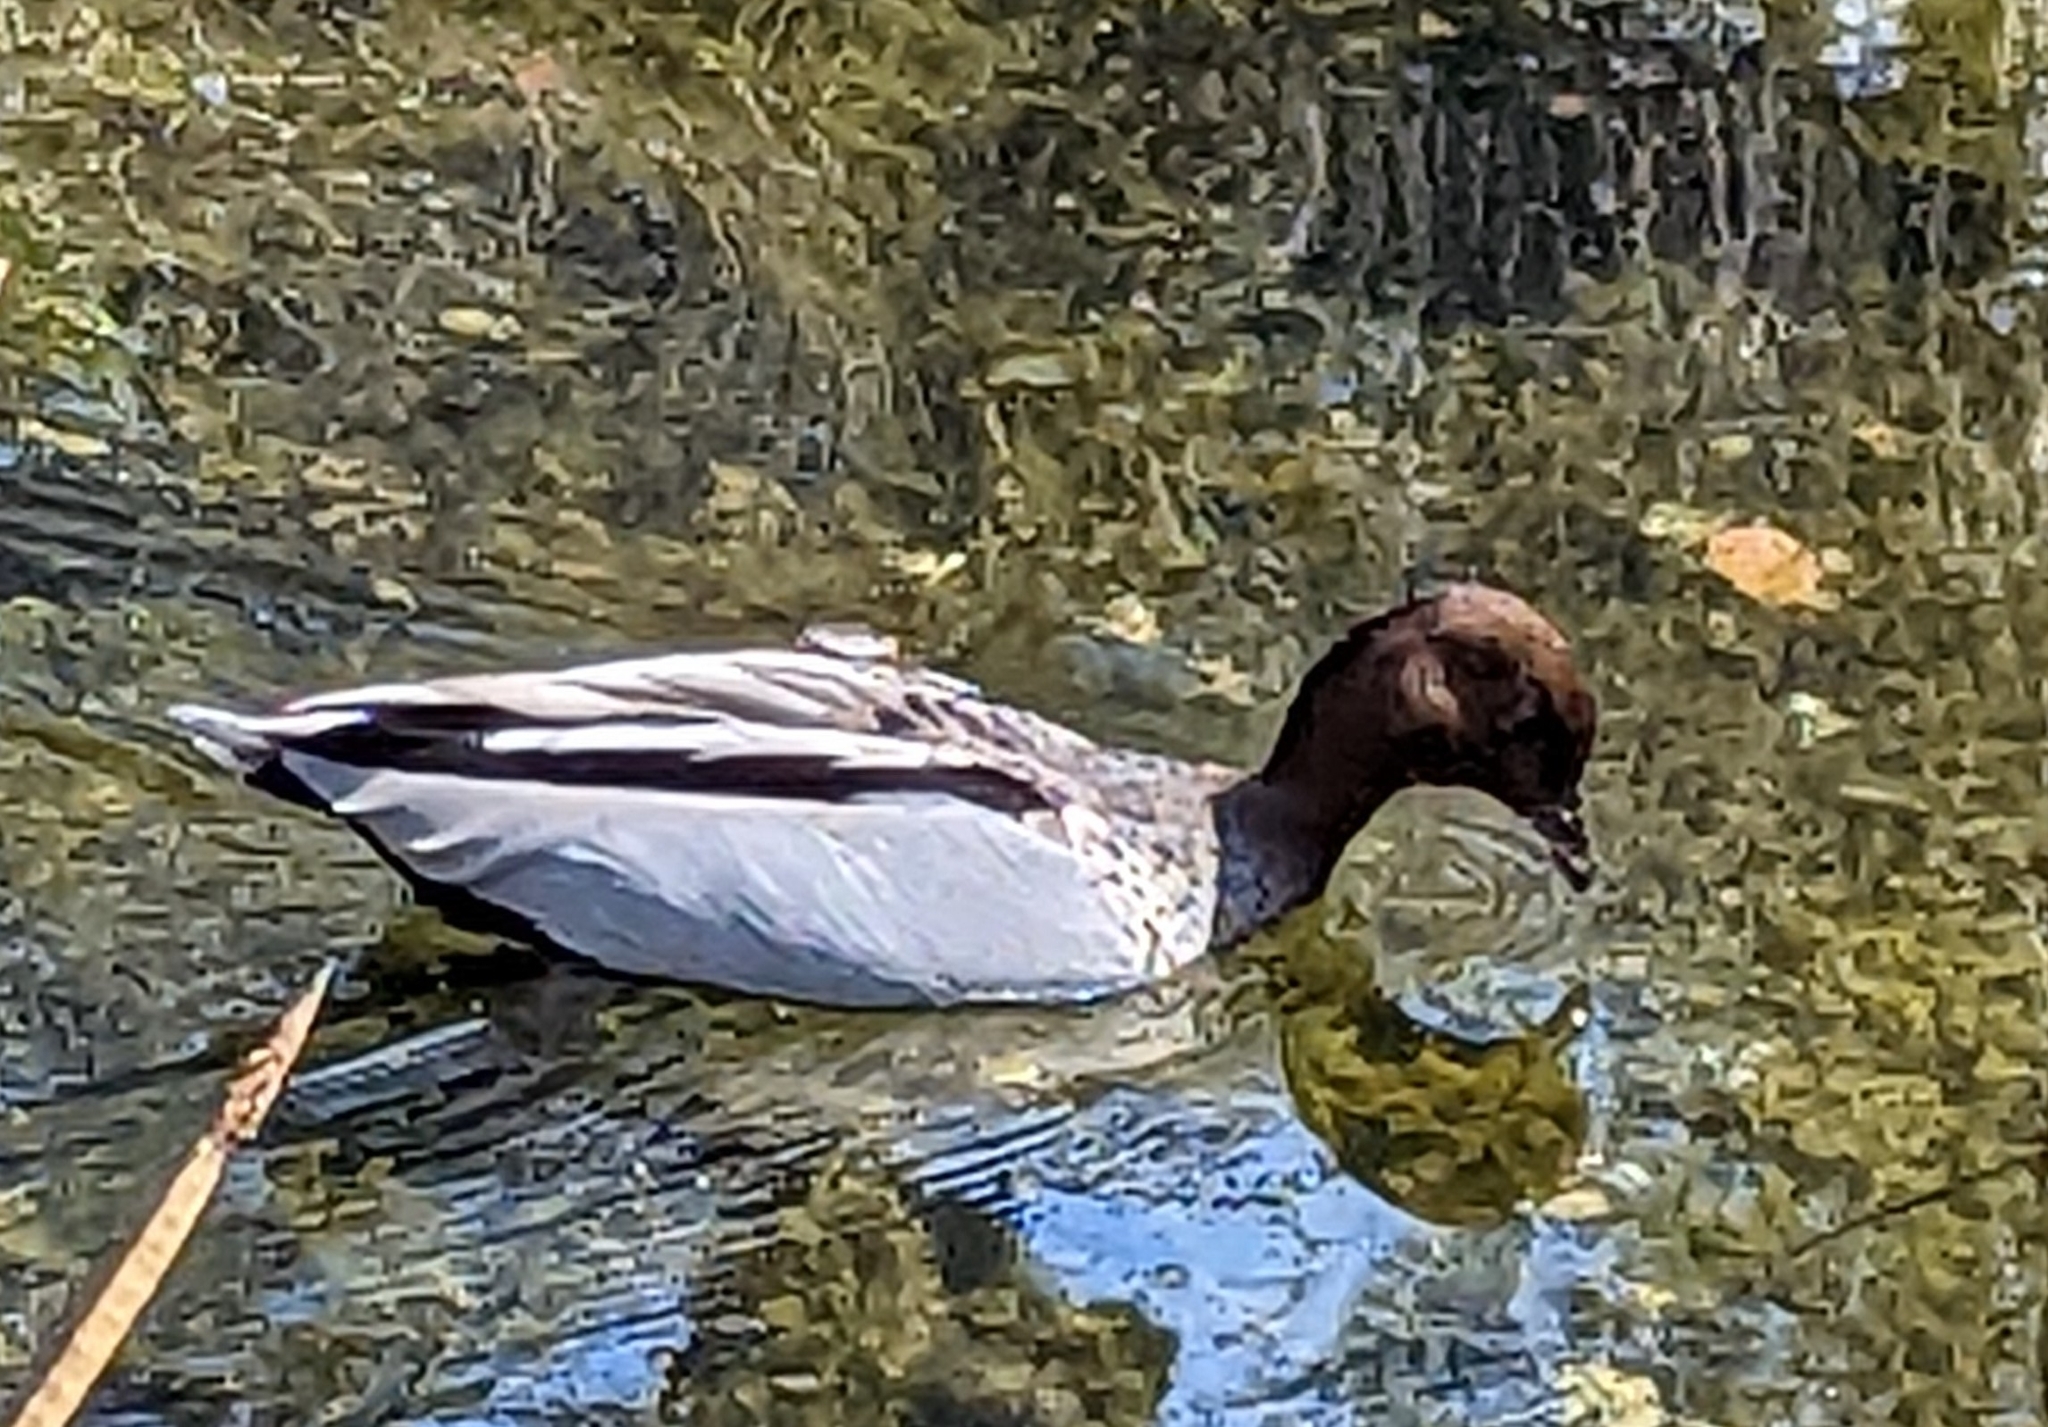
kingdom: Animalia
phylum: Chordata
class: Aves
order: Anseriformes
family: Anatidae
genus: Chenonetta
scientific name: Chenonetta jubata
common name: Maned duck
